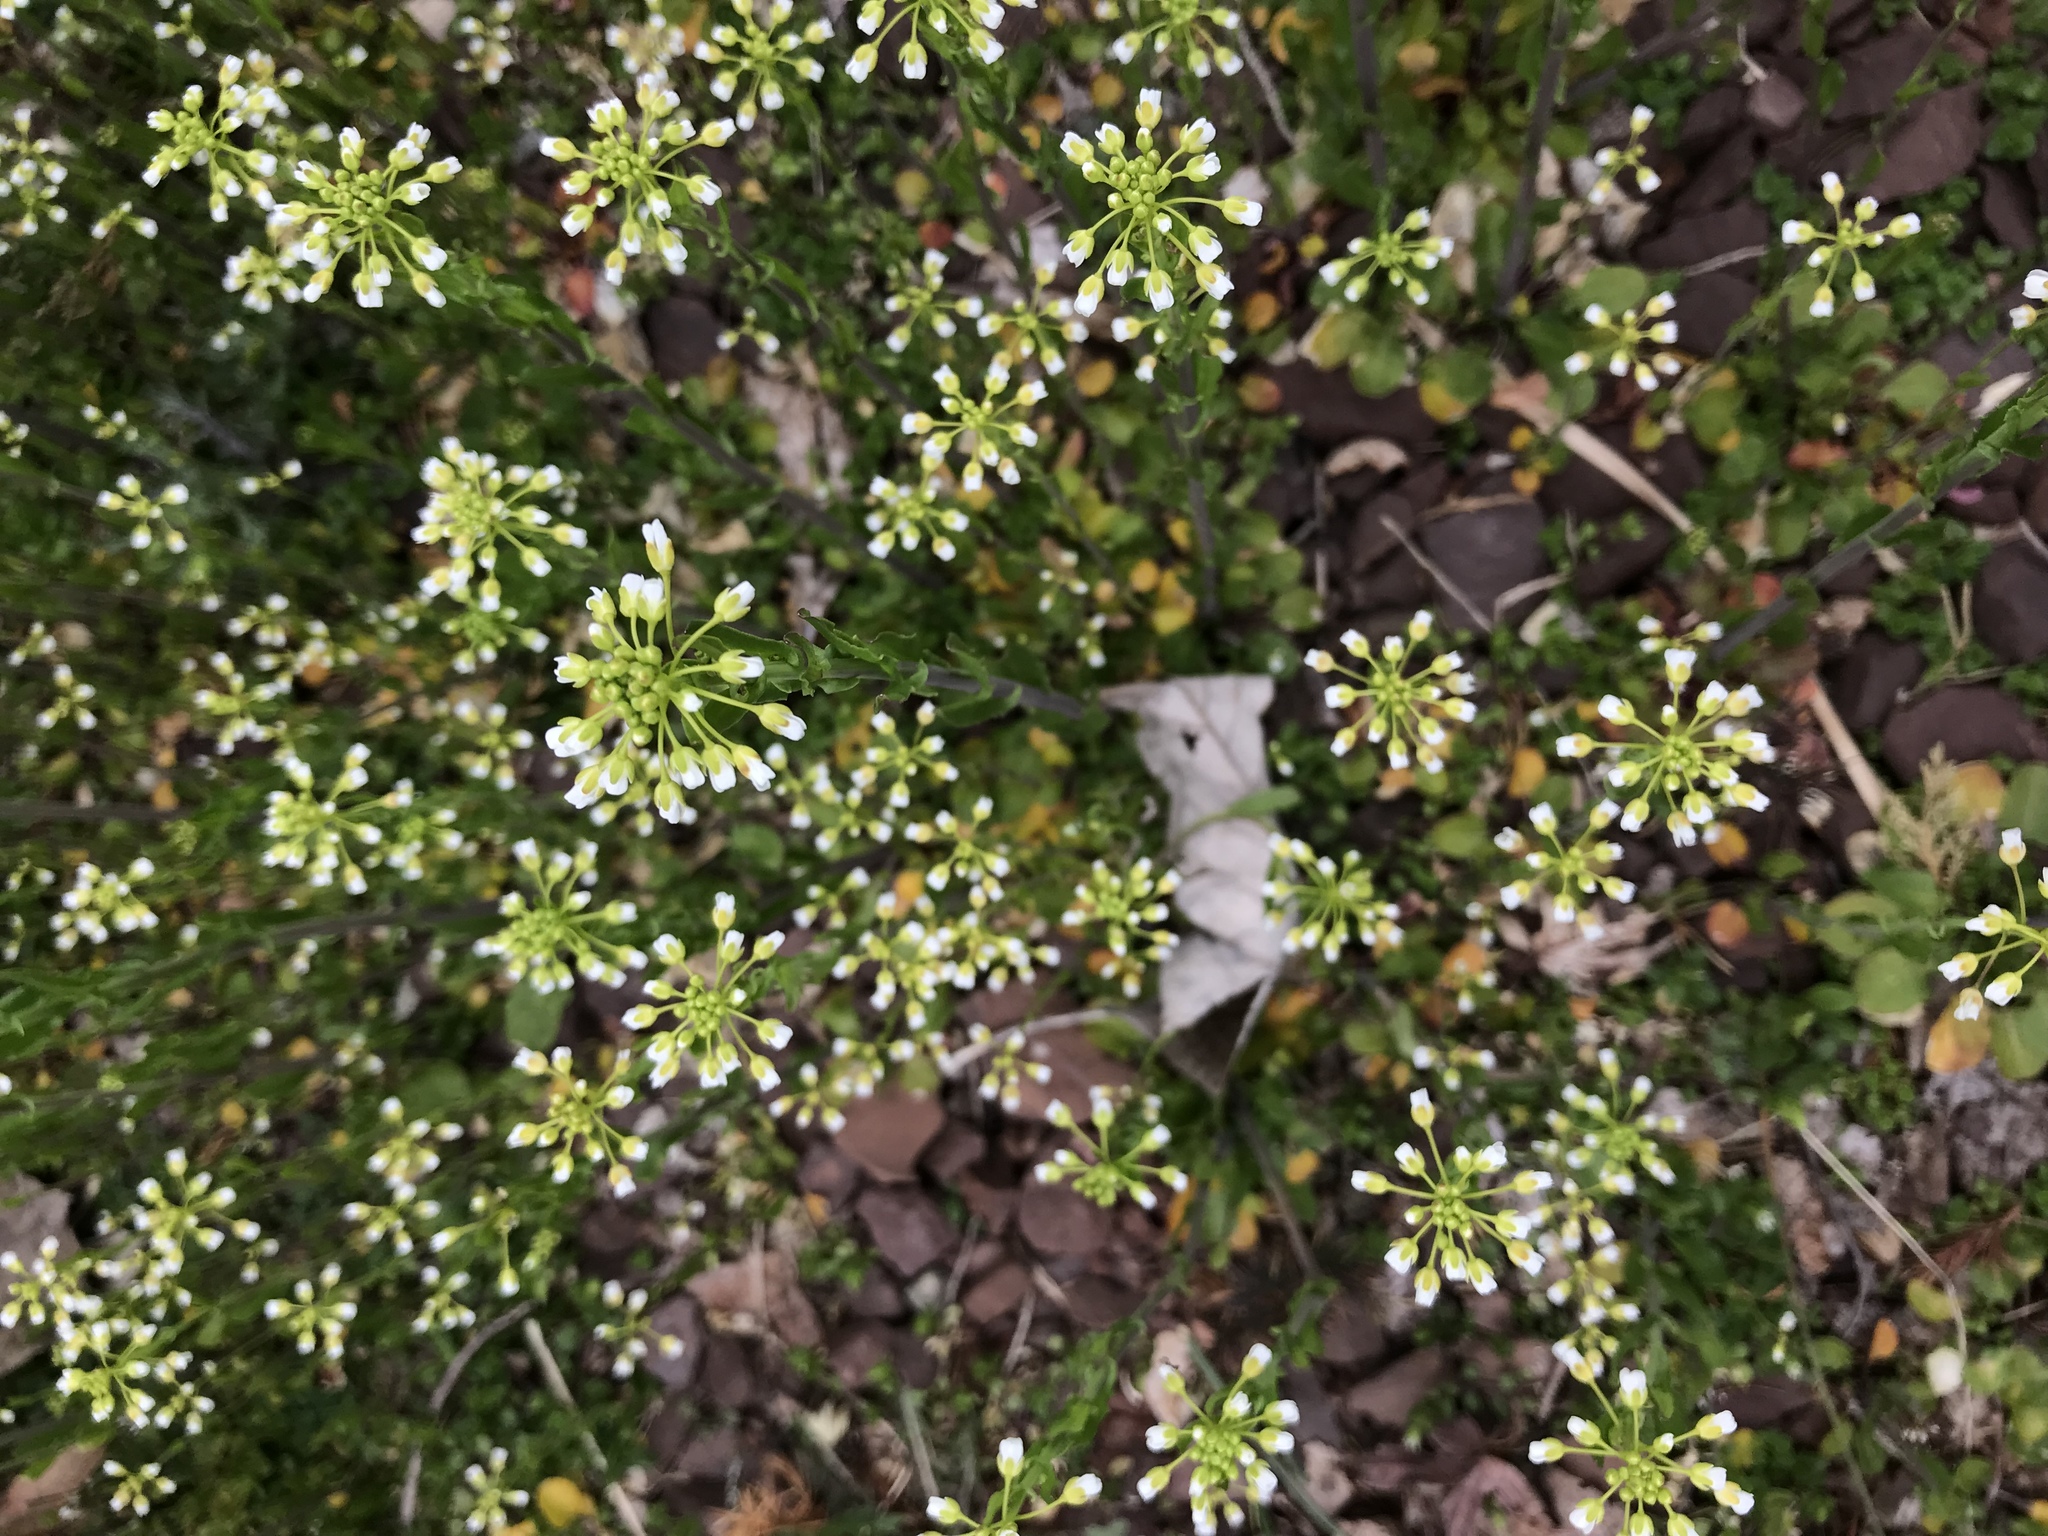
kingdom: Plantae
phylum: Tracheophyta
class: Magnoliopsida
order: Brassicales
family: Brassicaceae
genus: Mummenhoffia
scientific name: Mummenhoffia alliacea
